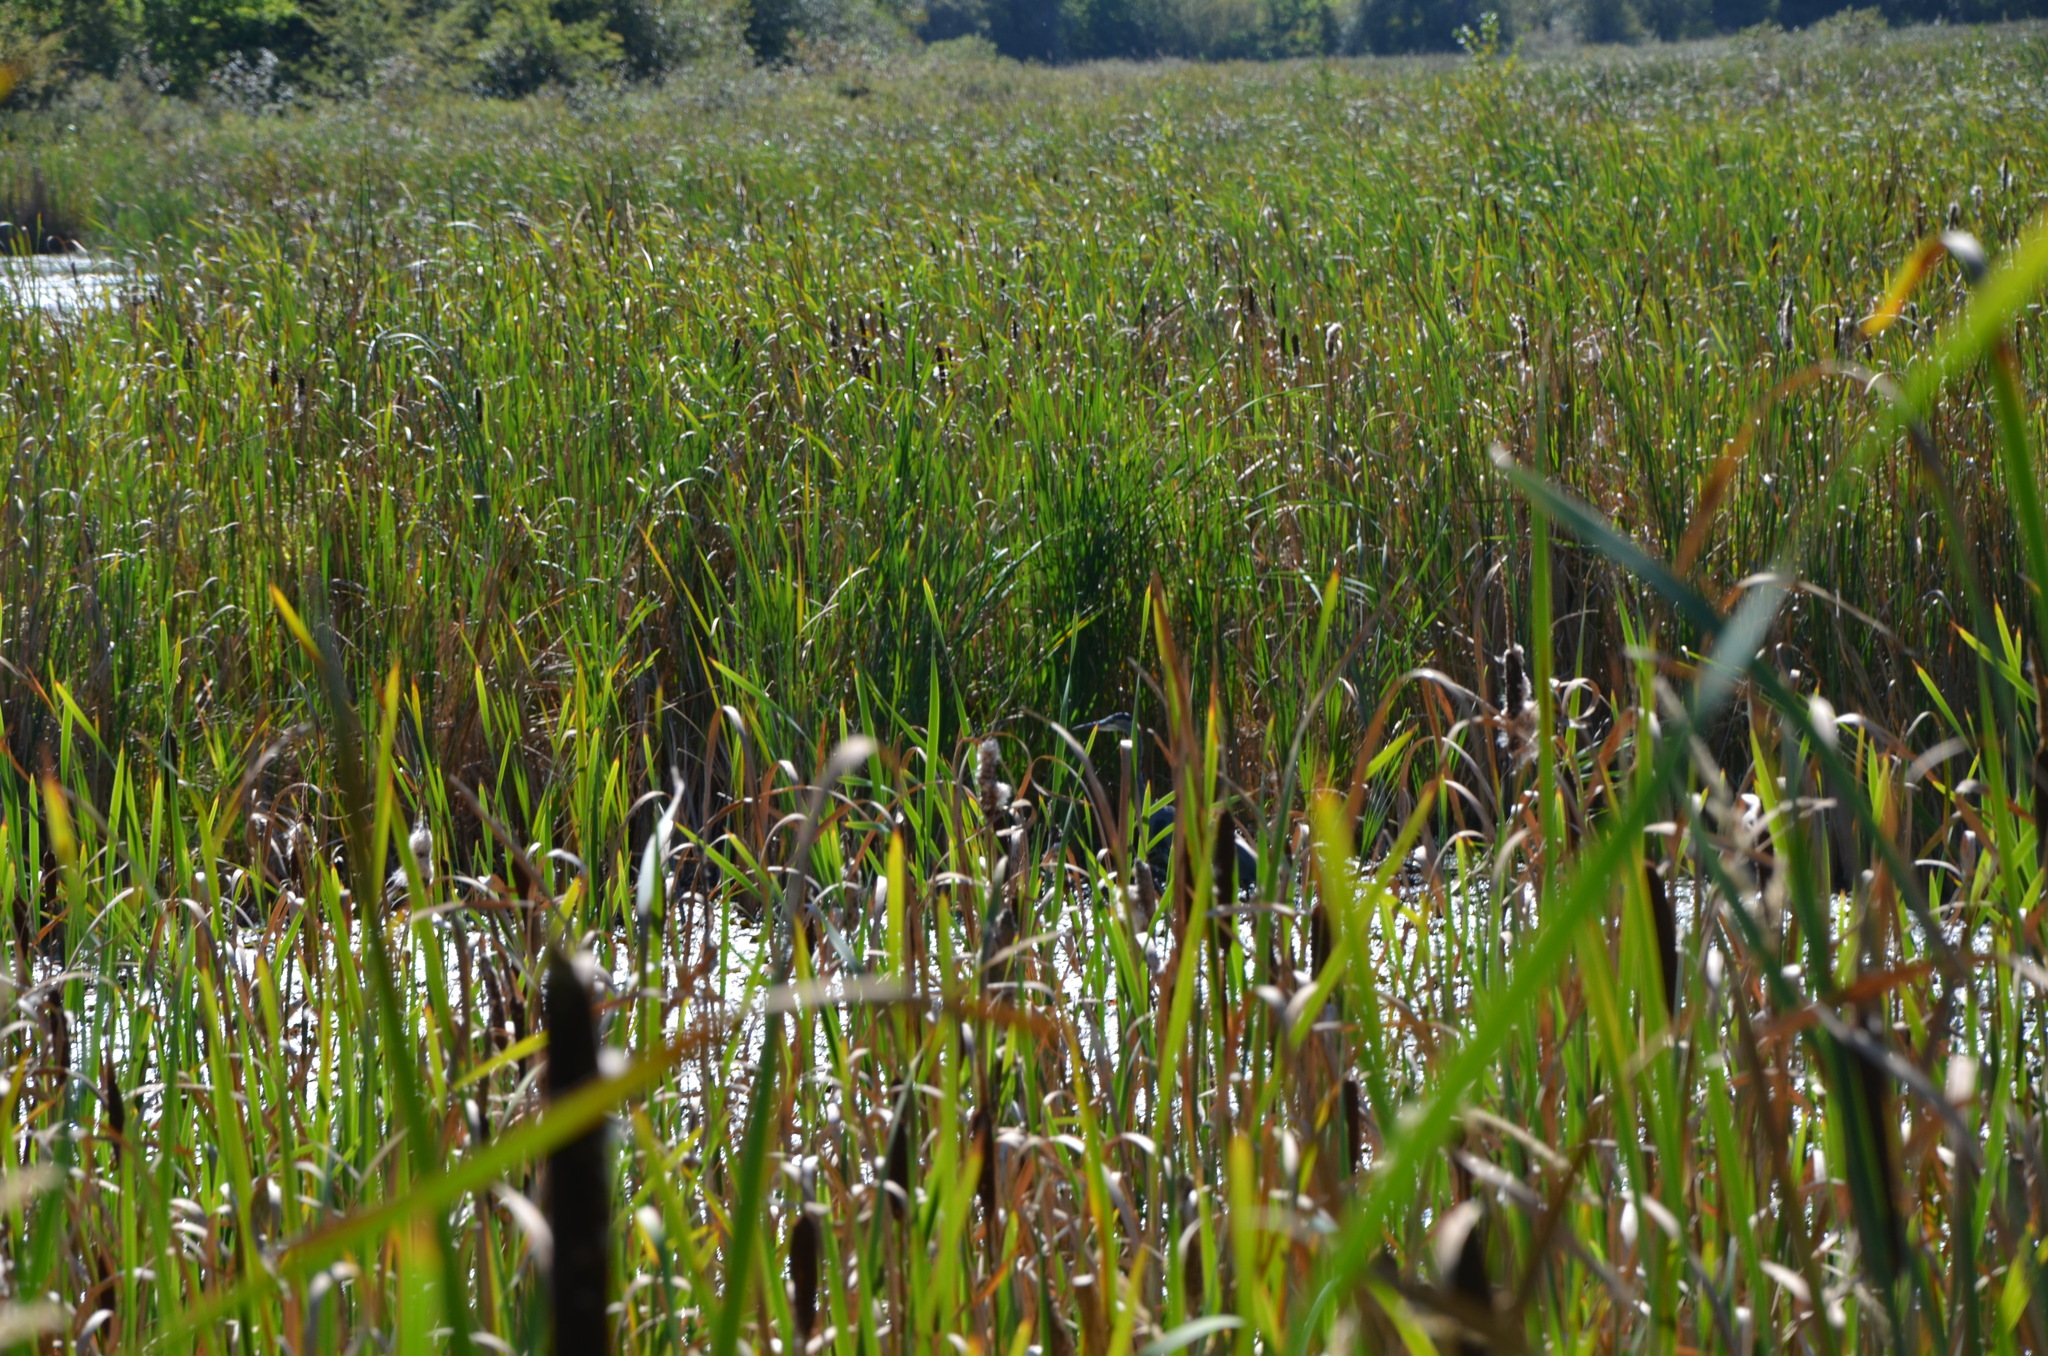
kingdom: Animalia
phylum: Chordata
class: Aves
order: Pelecaniformes
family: Ardeidae
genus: Ardea
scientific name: Ardea herodias
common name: Great blue heron
